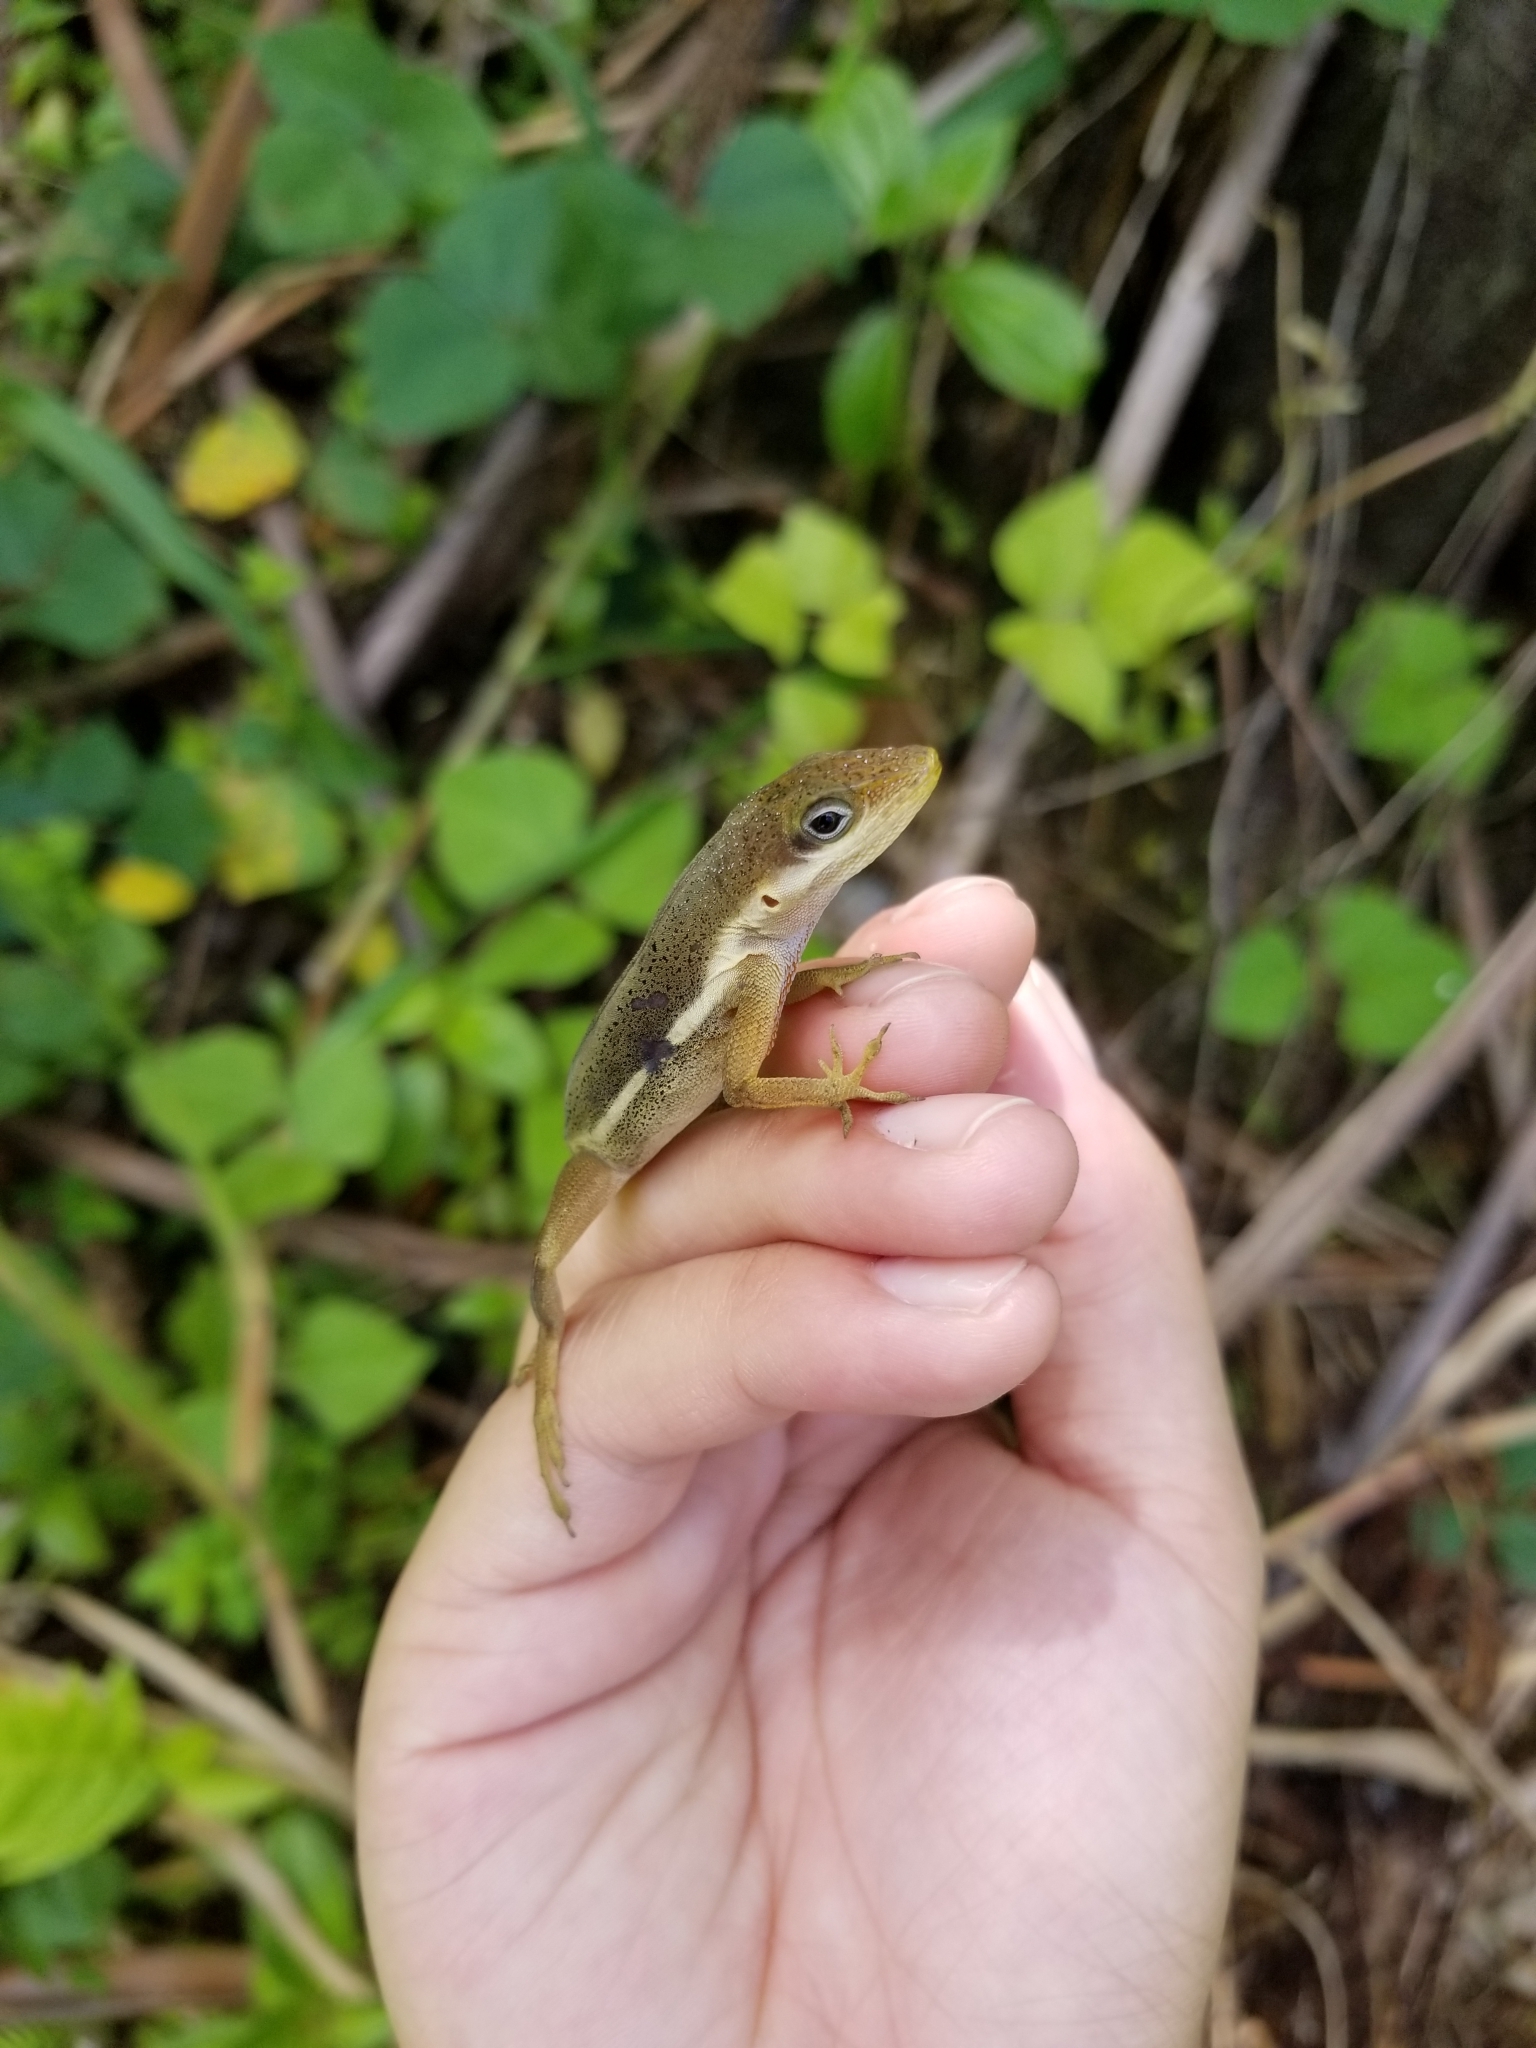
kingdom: Animalia
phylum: Chordata
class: Squamata
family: Dactyloidae
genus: Anolis
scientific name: Anolis krugi
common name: Krug's anole
